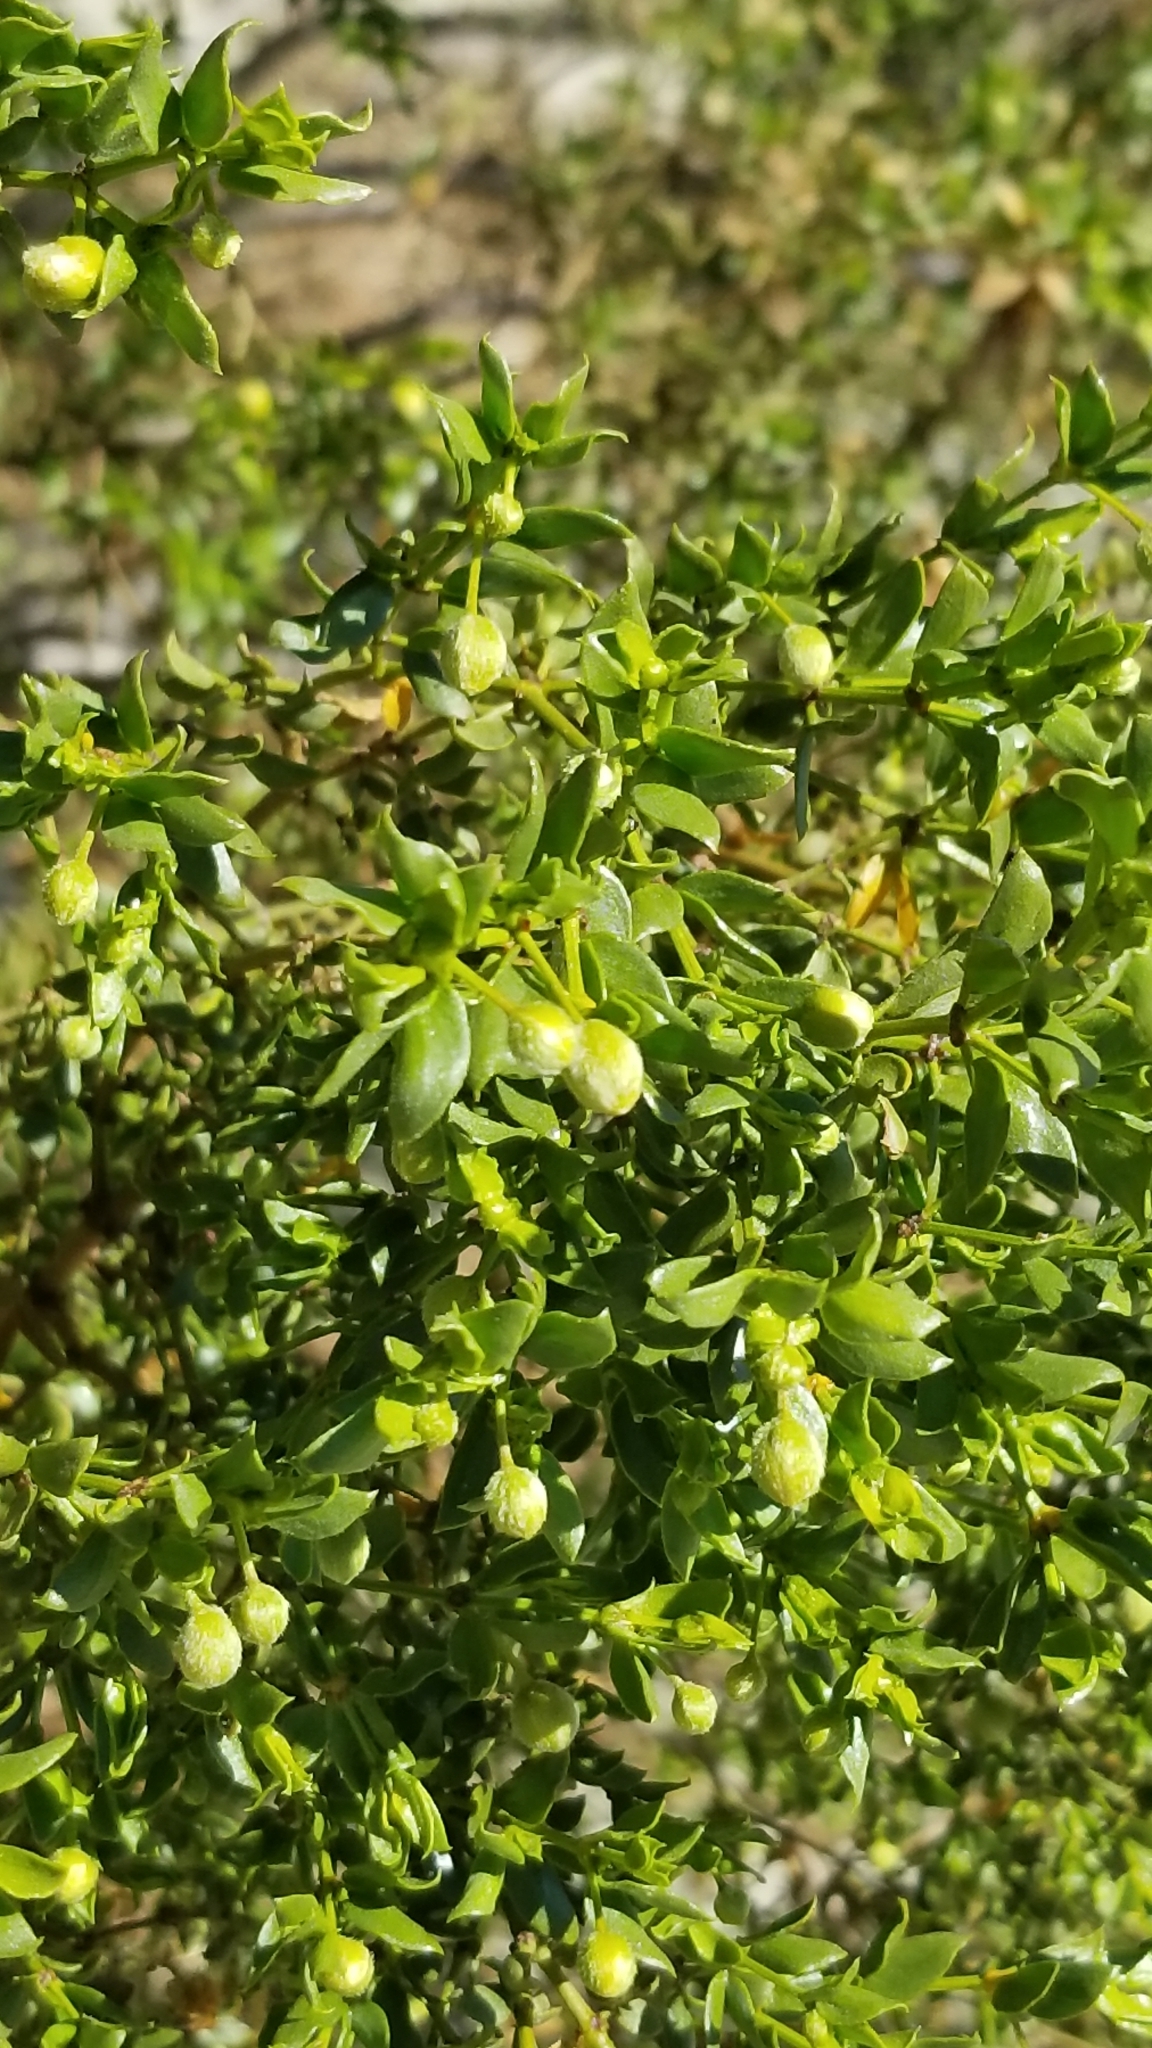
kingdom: Plantae
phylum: Tracheophyta
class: Magnoliopsida
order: Zygophyllales
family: Zygophyllaceae
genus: Larrea
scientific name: Larrea tridentata
